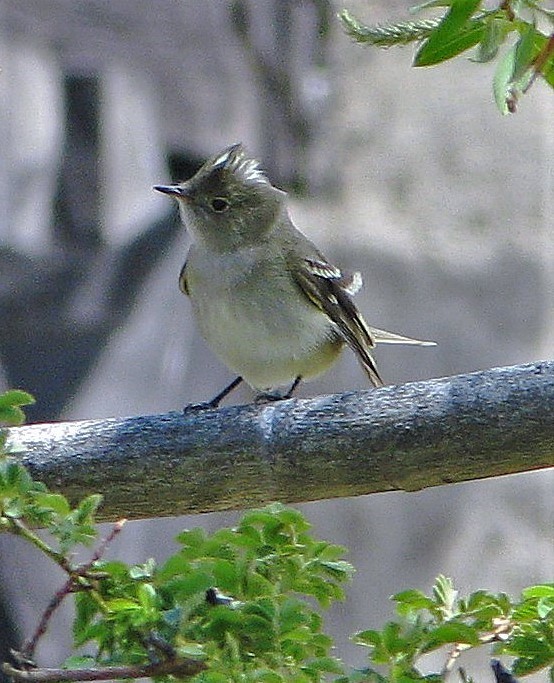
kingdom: Animalia
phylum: Chordata
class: Aves
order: Passeriformes
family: Tyrannidae
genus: Elaenia
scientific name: Elaenia albiceps
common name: White-crested elaenia
